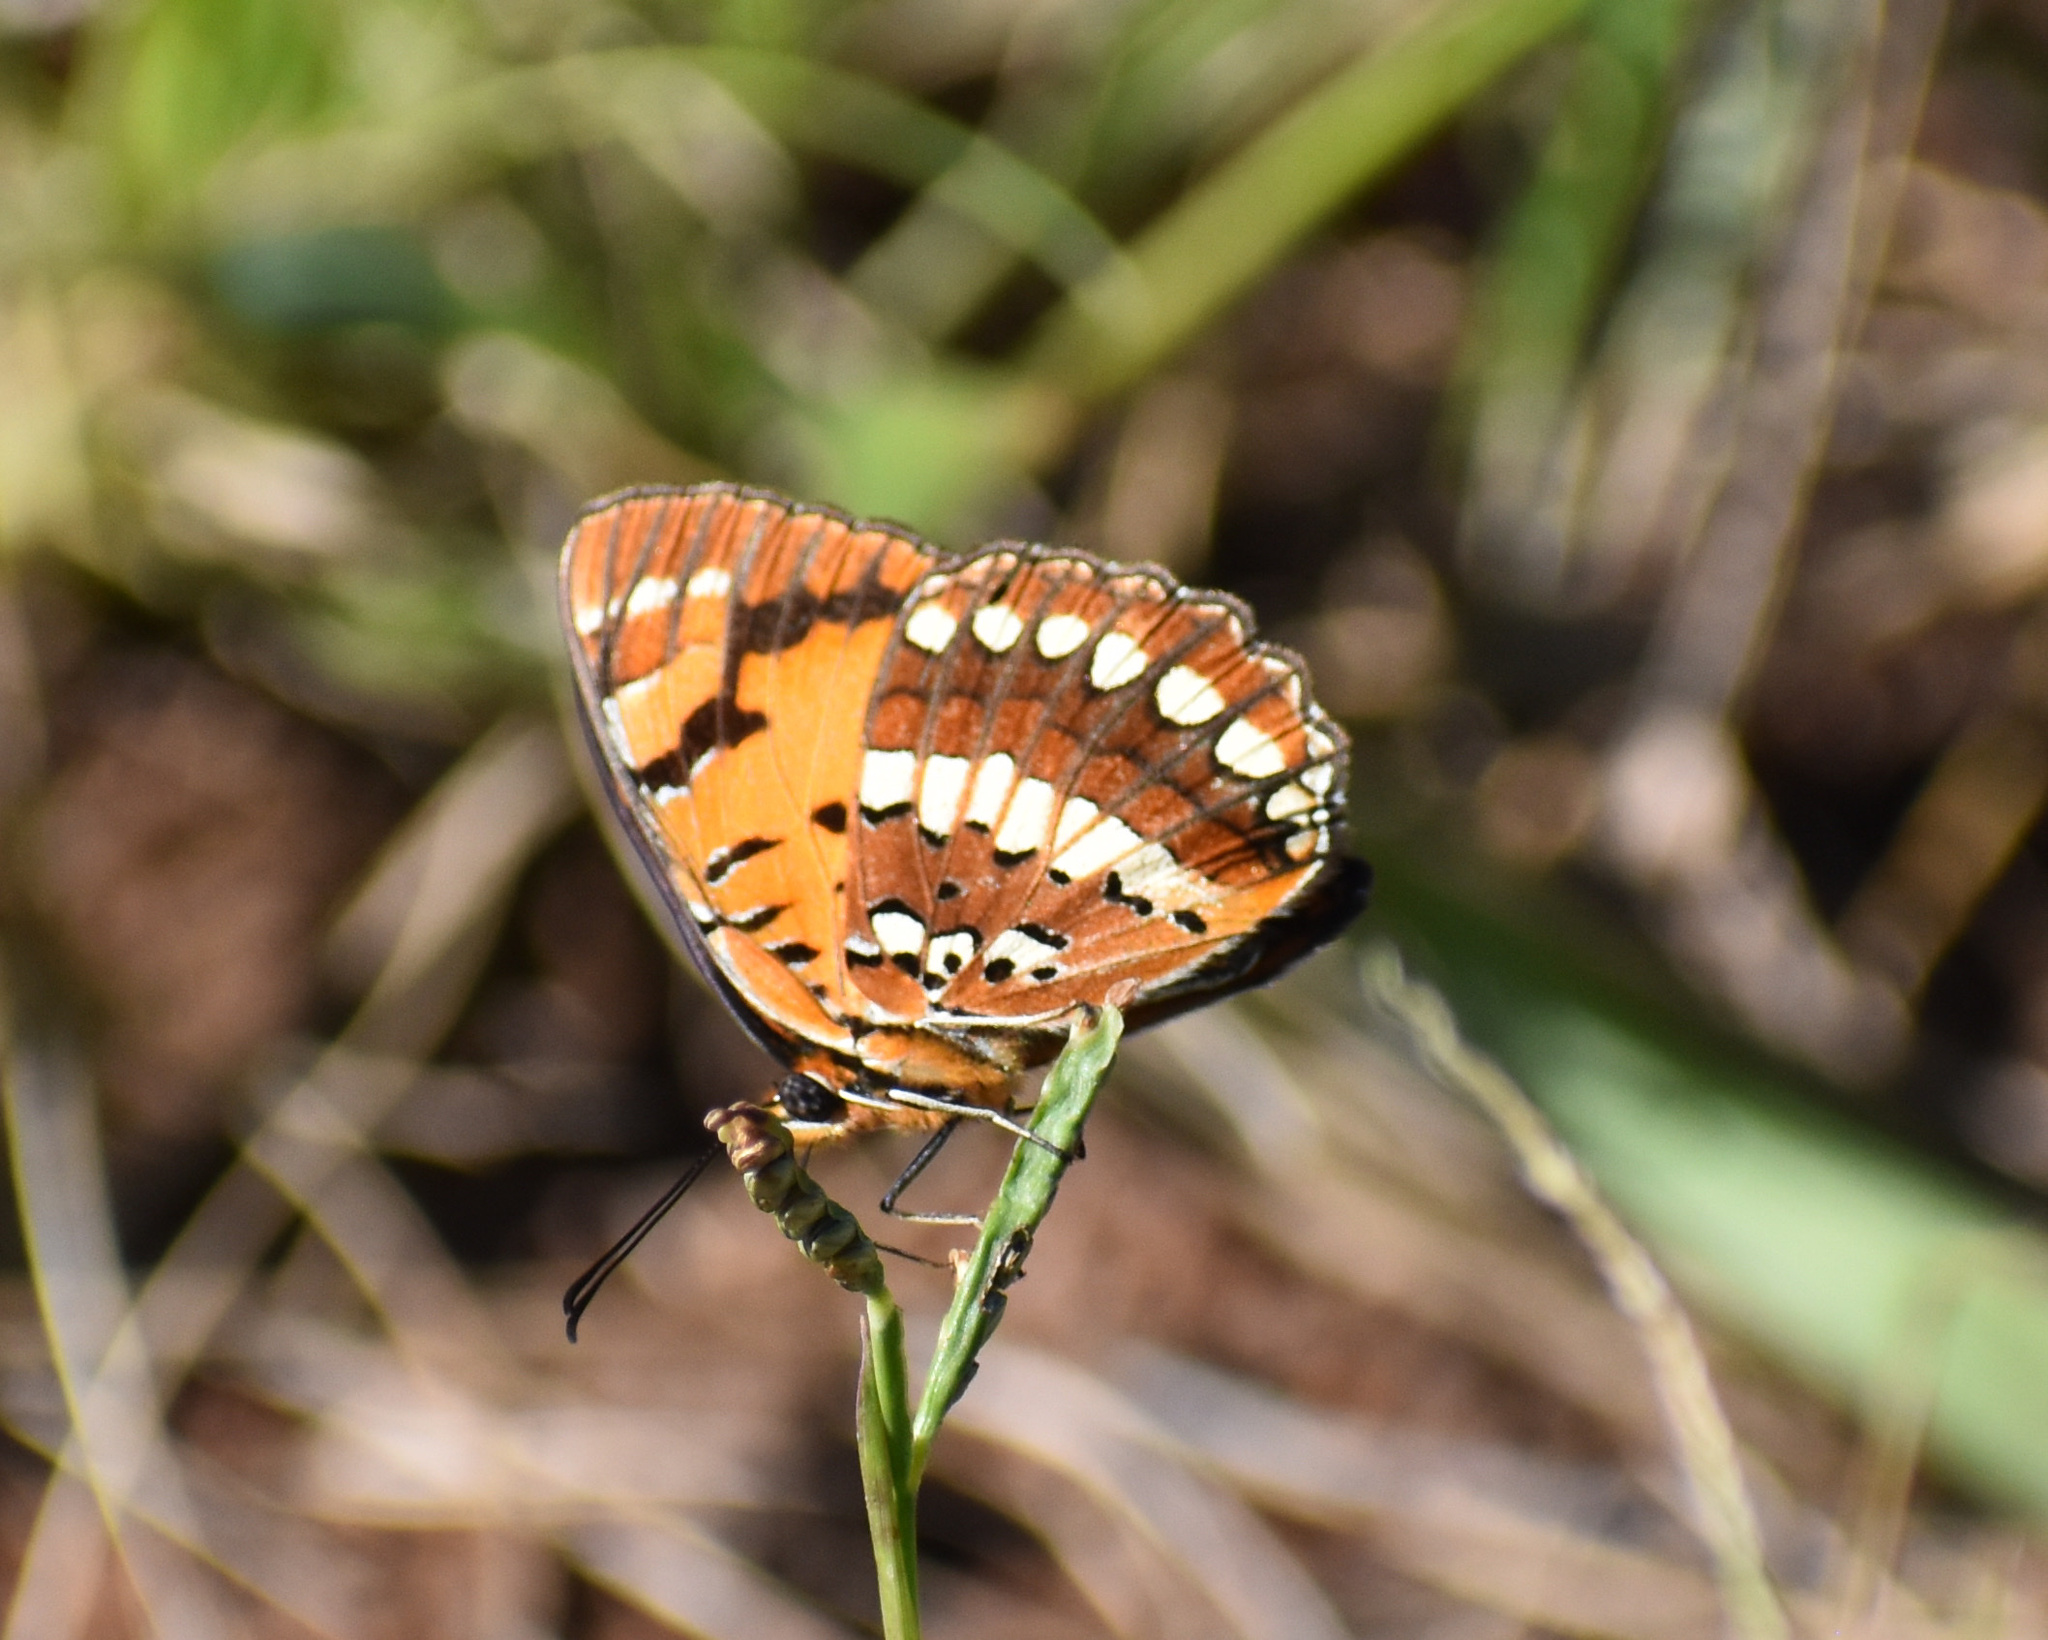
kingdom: Animalia
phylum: Arthropoda
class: Insecta
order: Lepidoptera
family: Nymphalidae
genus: Byblia
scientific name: Byblia acheloia
